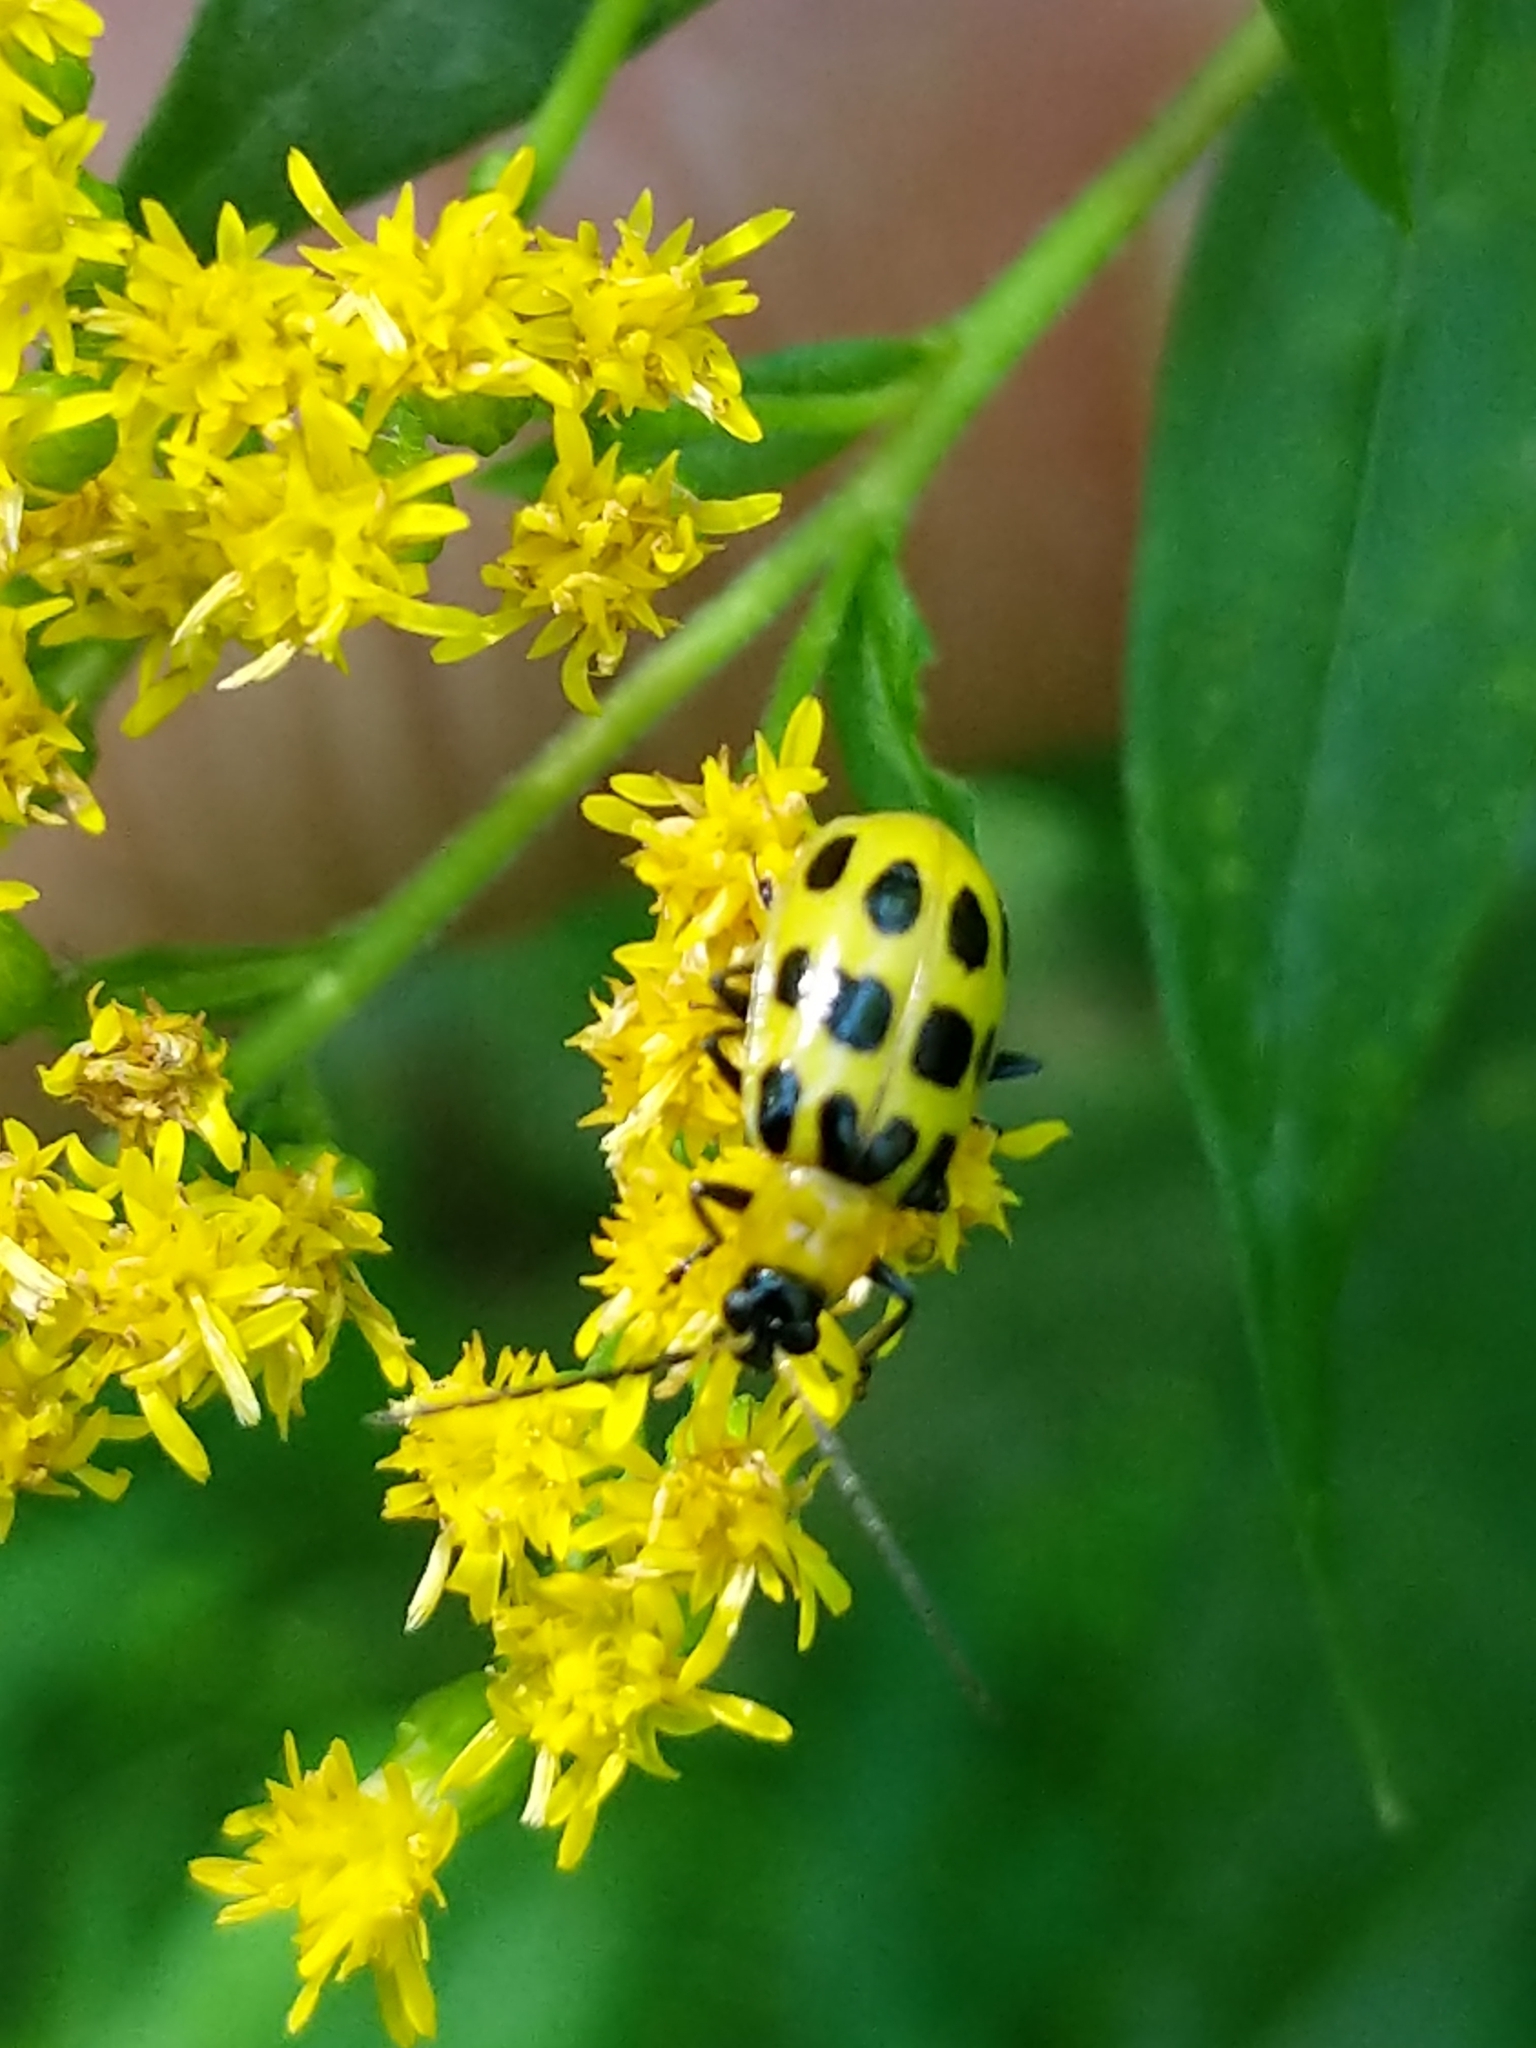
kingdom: Animalia
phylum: Arthropoda
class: Insecta
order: Coleoptera
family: Chrysomelidae
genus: Diabrotica
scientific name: Diabrotica undecimpunctata
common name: Spotted cucumber beetle
